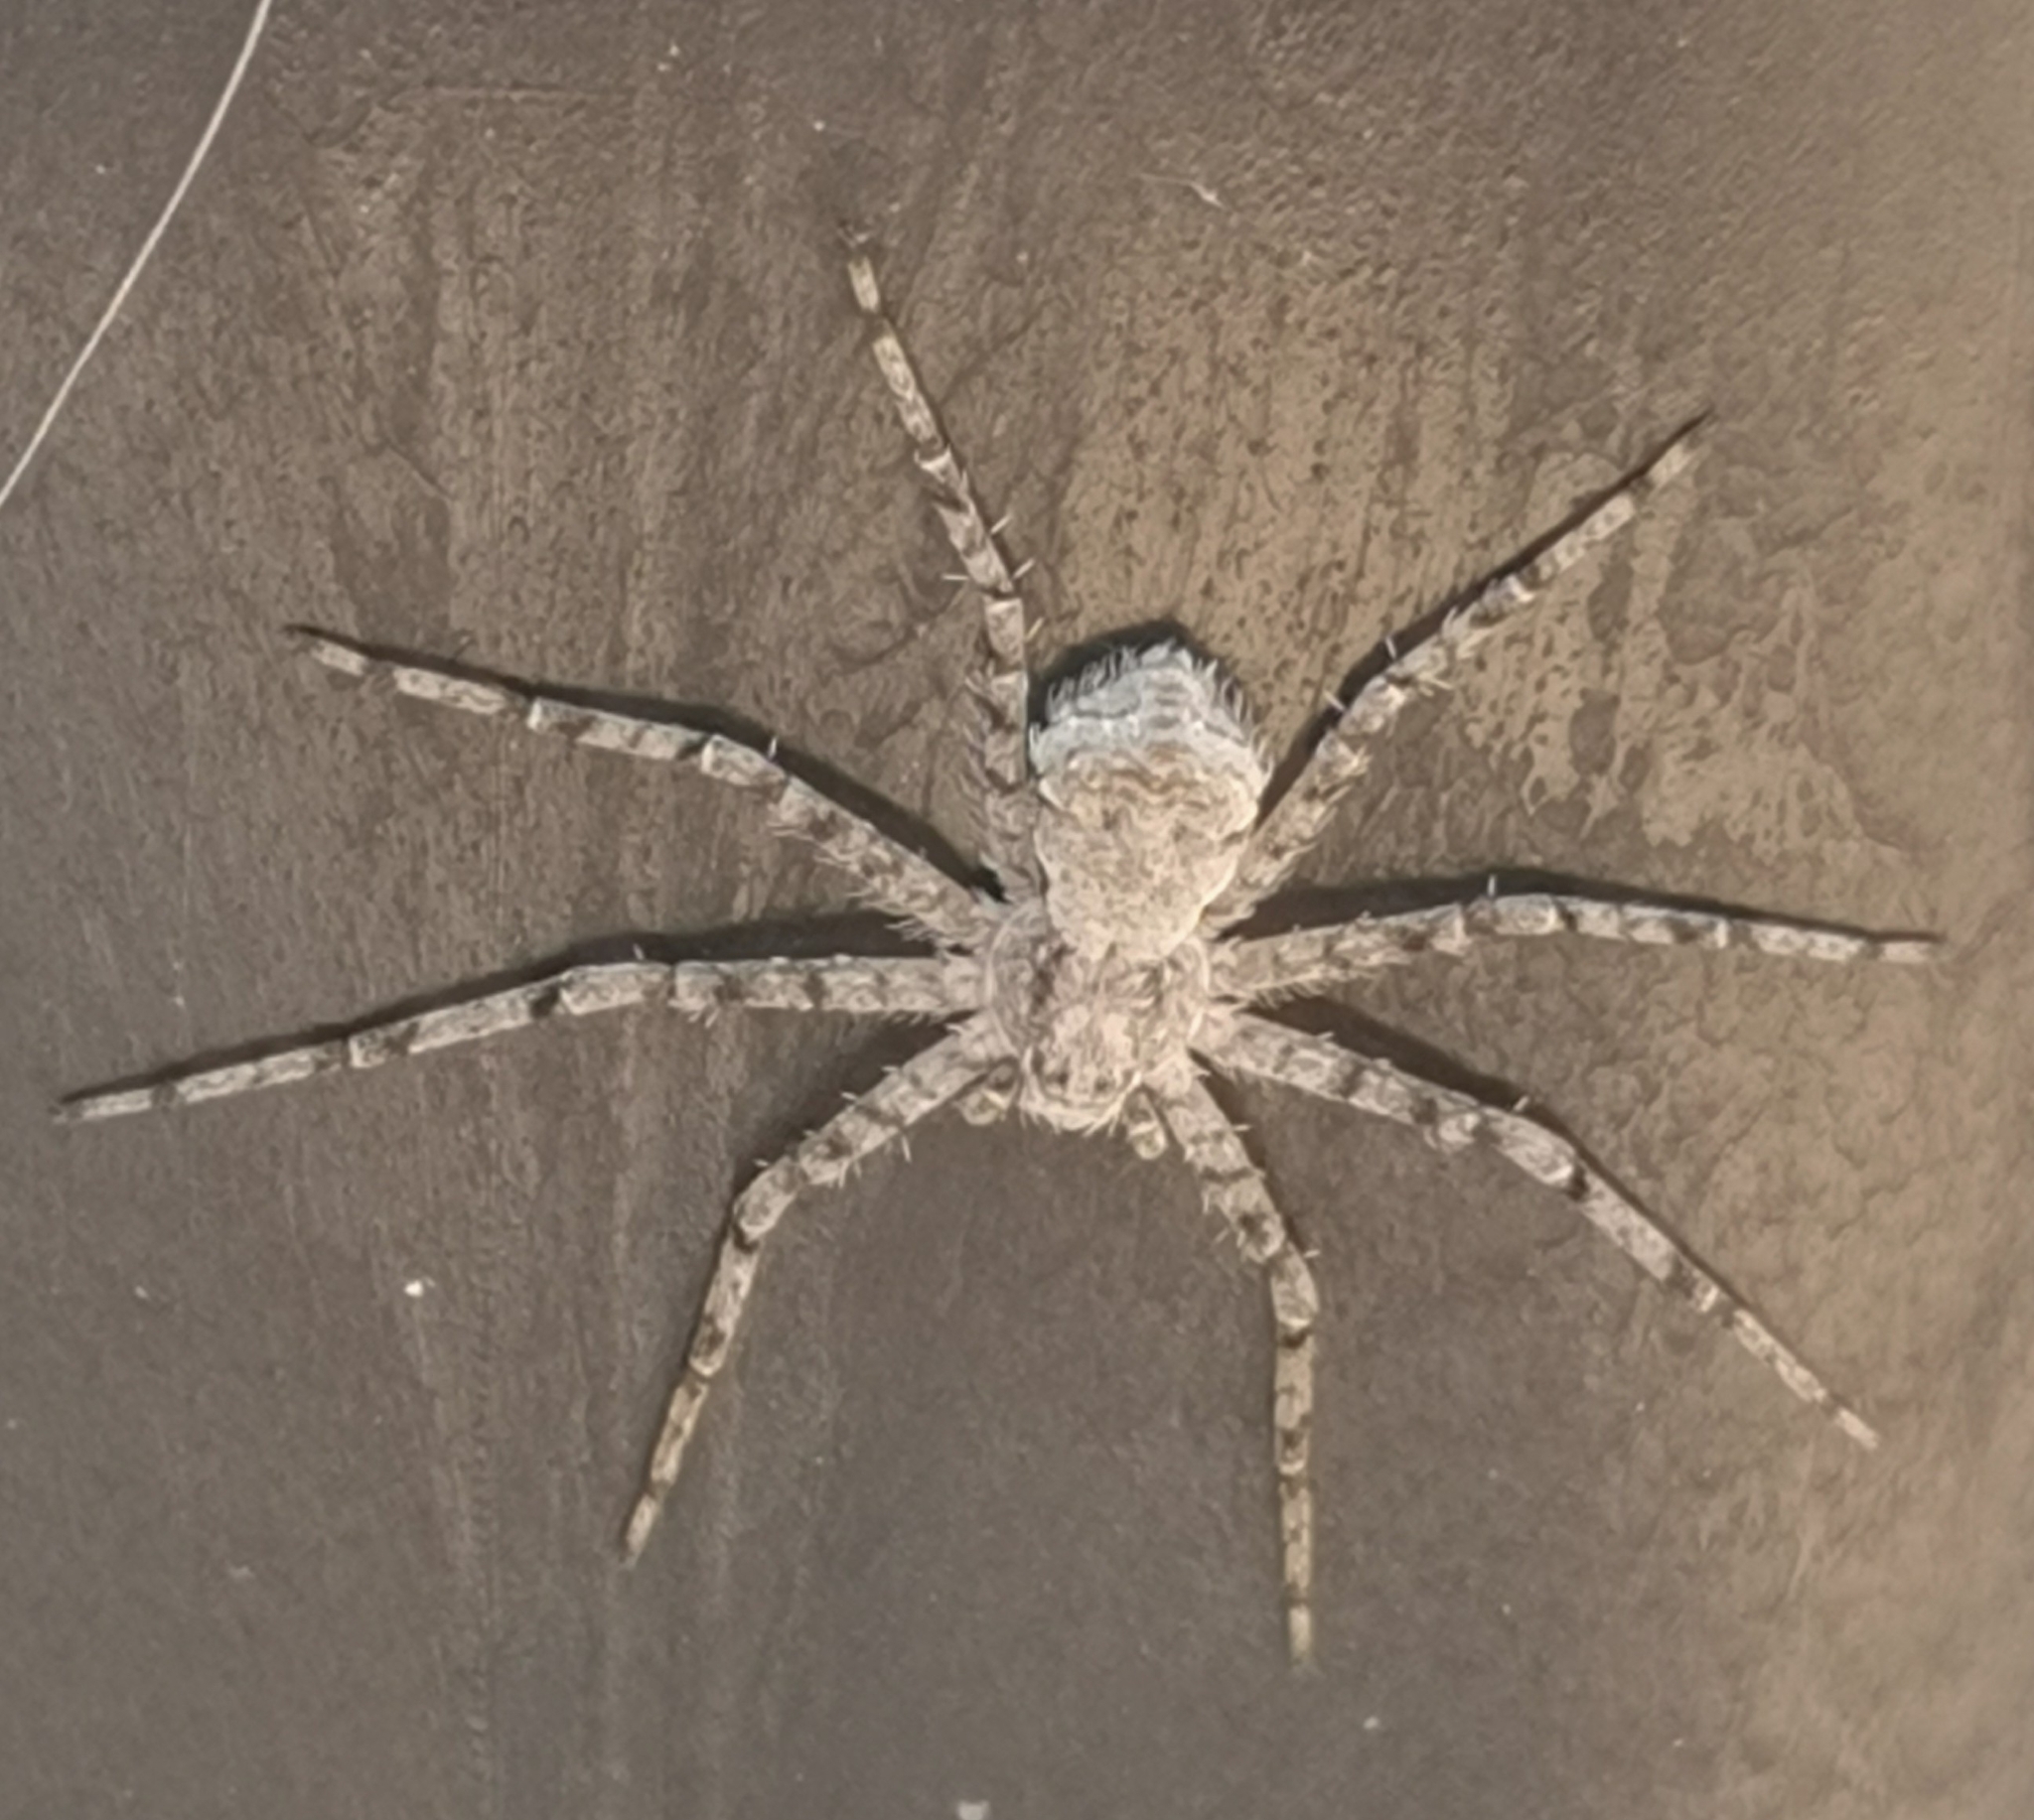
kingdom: Animalia
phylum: Arthropoda
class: Arachnida
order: Araneae
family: Philodromidae
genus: Philodromus
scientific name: Philodromus margaritatus
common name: Lichen running-spider
